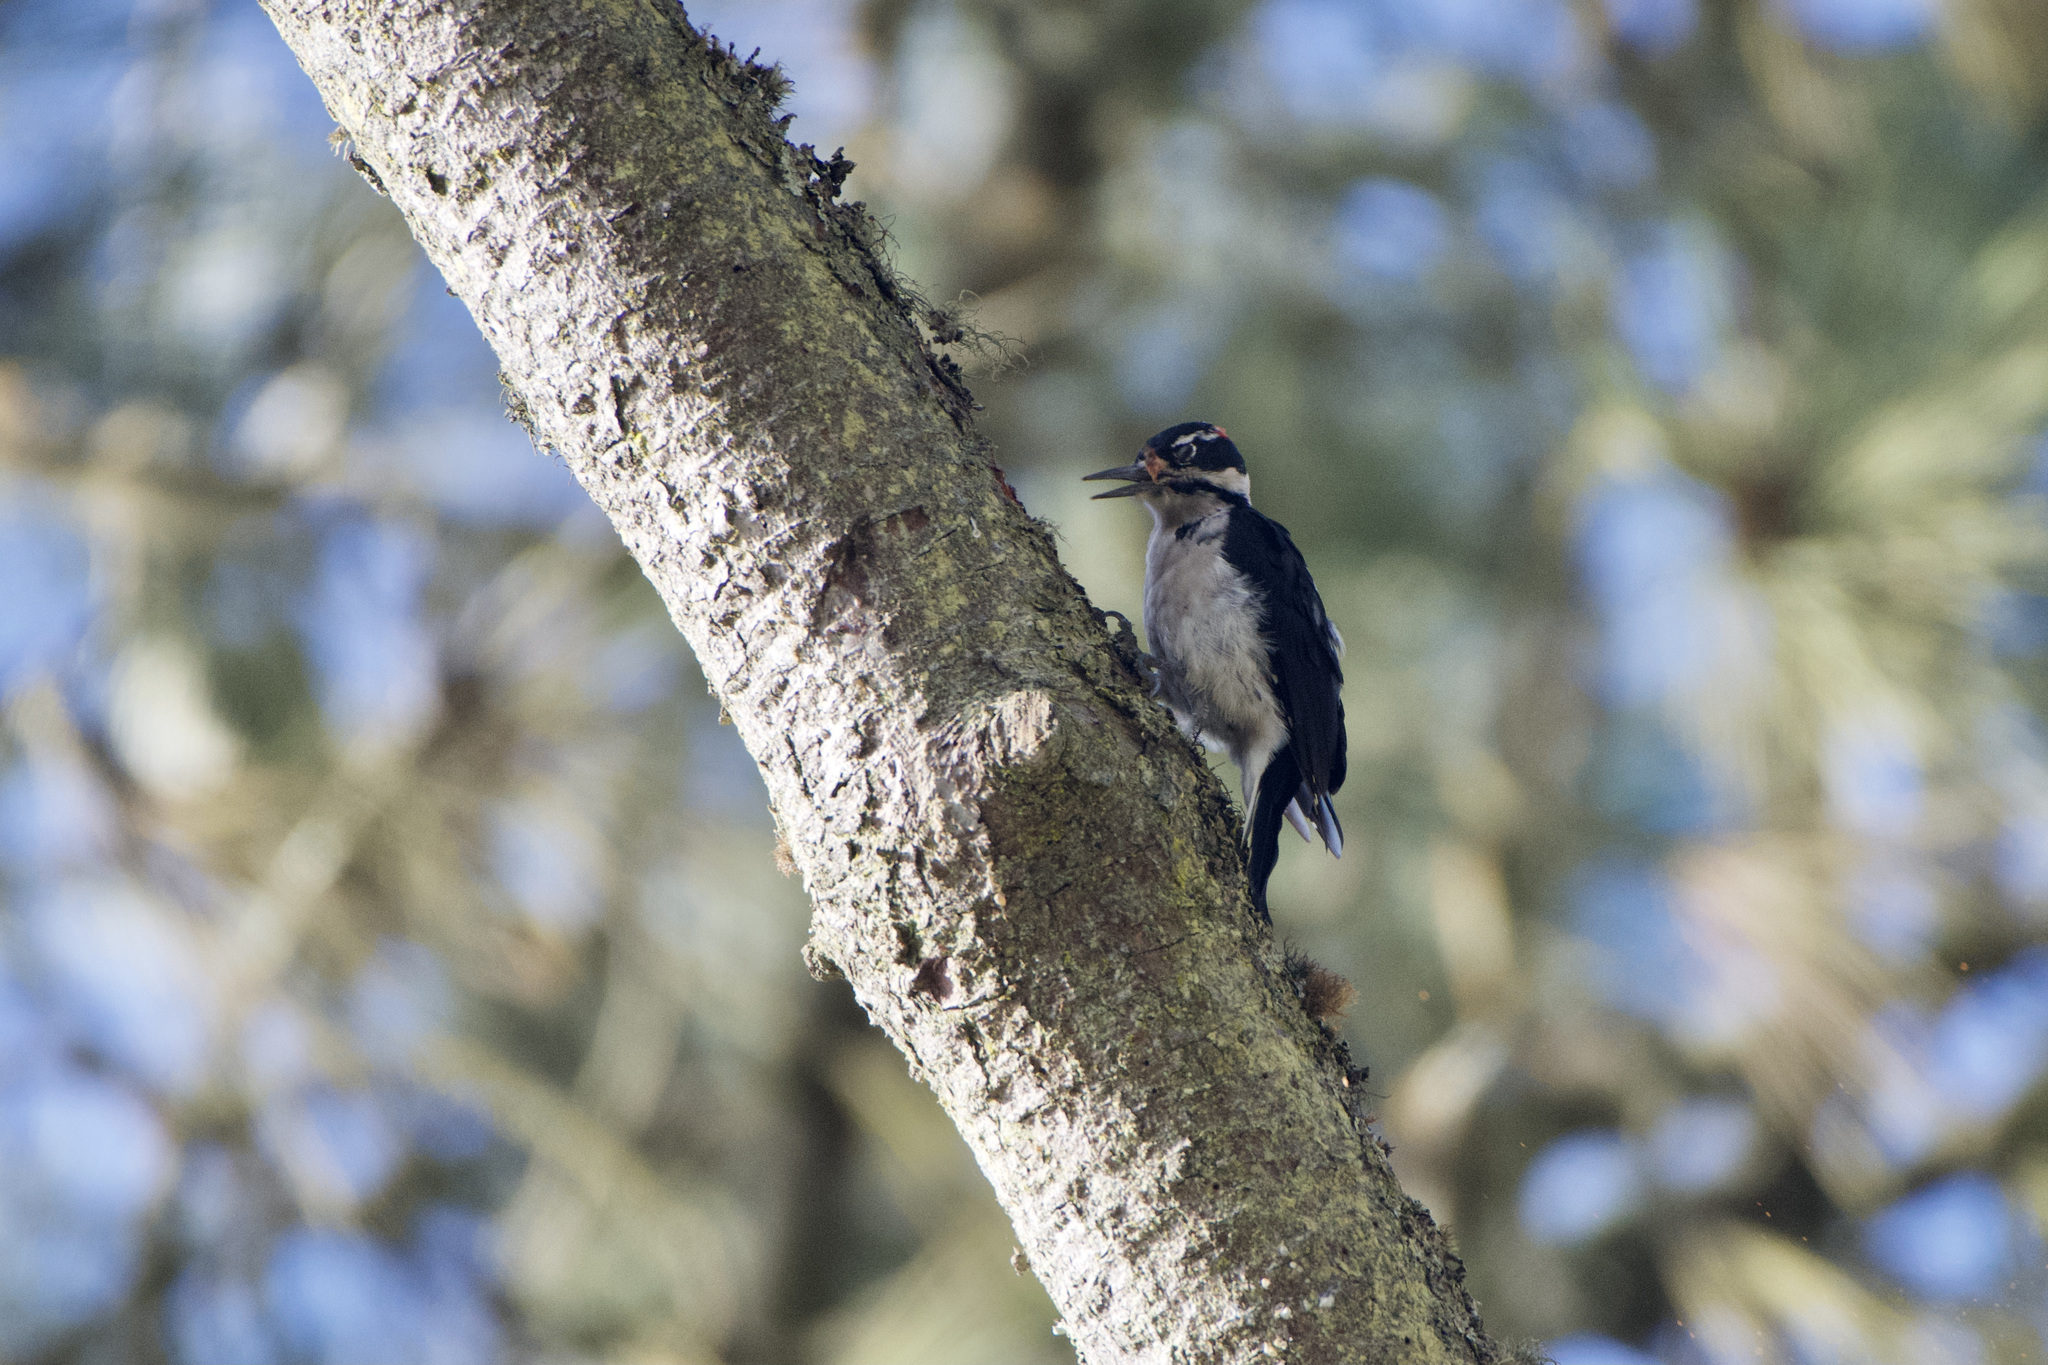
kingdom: Animalia
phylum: Chordata
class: Aves
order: Piciformes
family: Picidae
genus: Leuconotopicus
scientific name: Leuconotopicus villosus
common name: Hairy woodpecker
